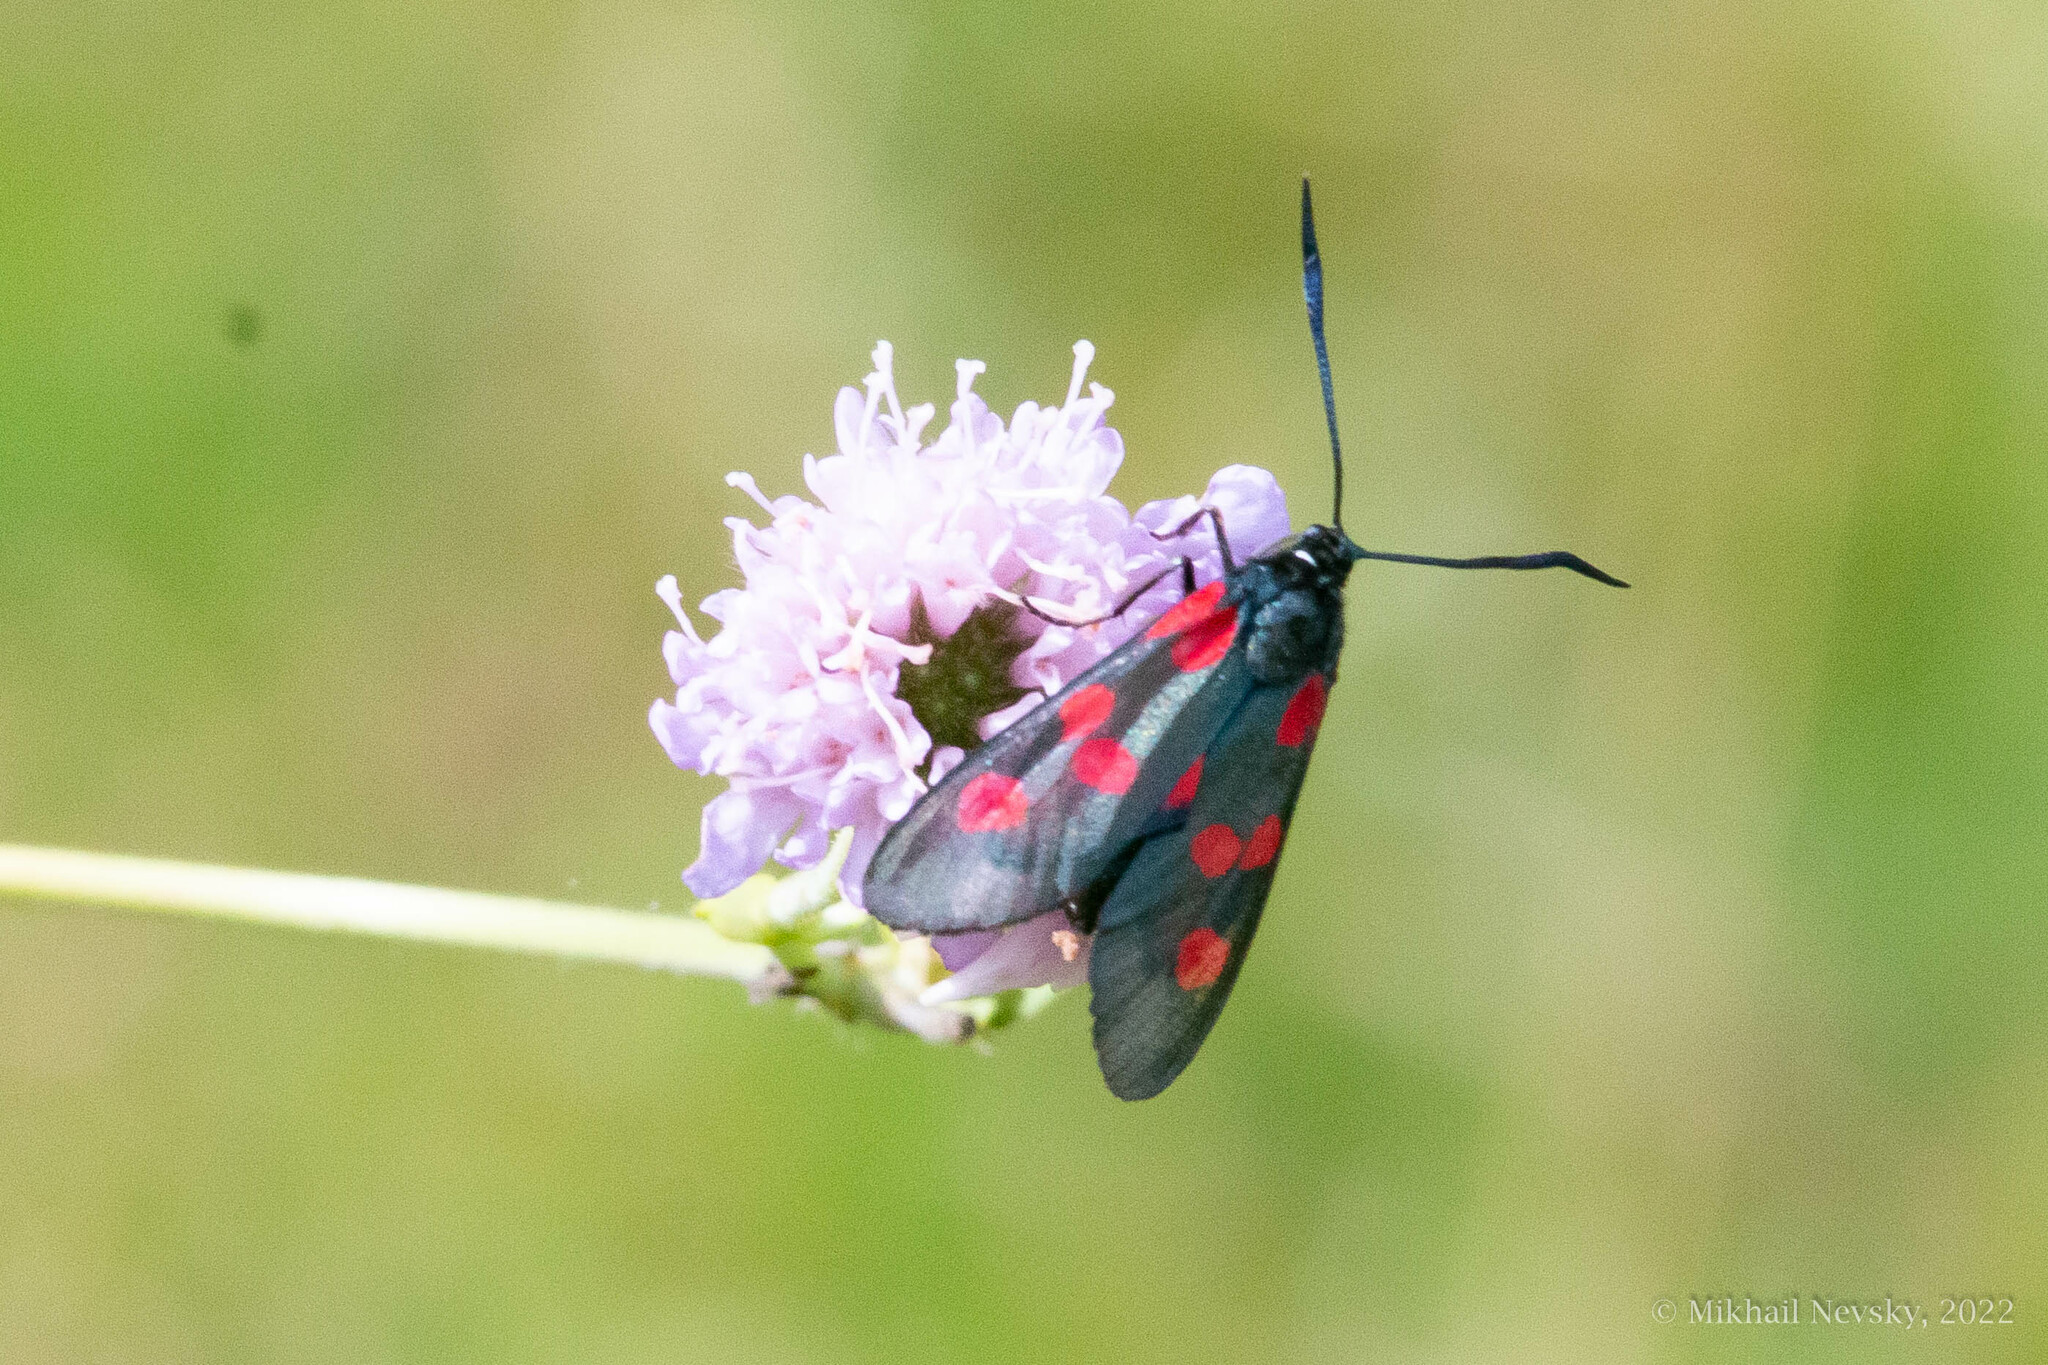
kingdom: Animalia
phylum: Arthropoda
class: Insecta
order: Lepidoptera
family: Zygaenidae
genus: Zygaena
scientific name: Zygaena lonicerae
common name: Narrow-bordered five-spot burnet
